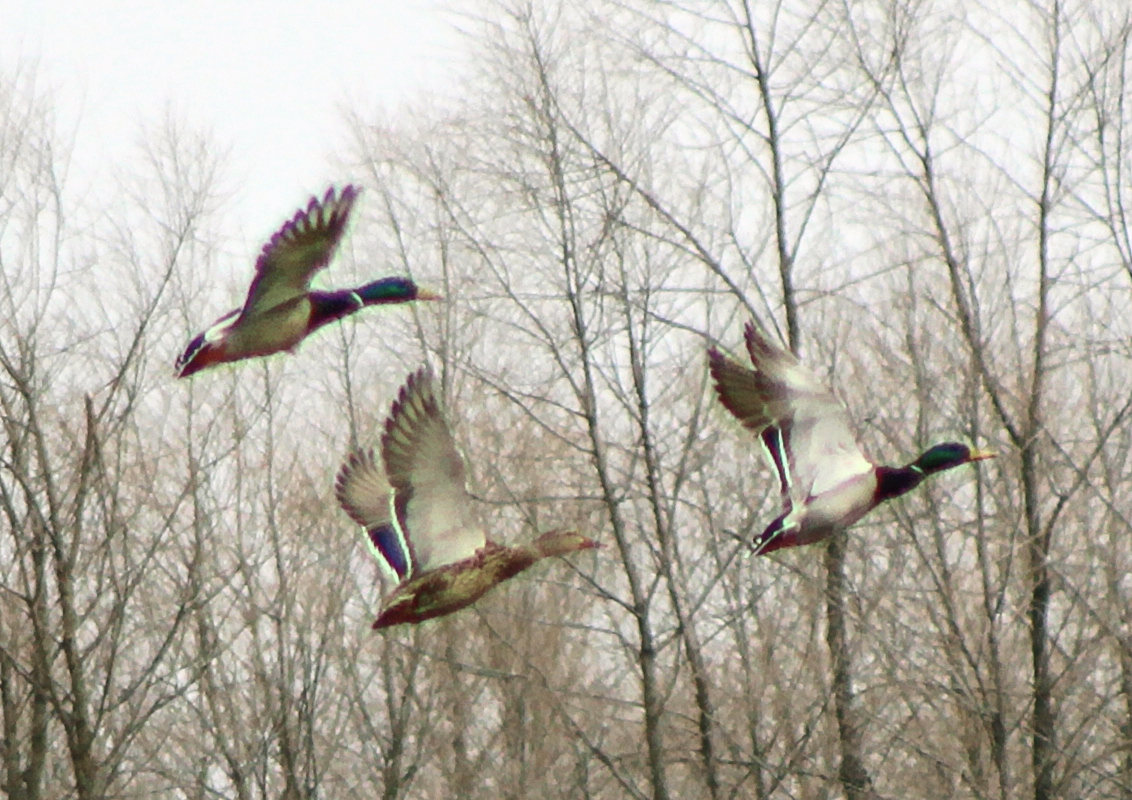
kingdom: Animalia
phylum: Chordata
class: Aves
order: Anseriformes
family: Anatidae
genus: Anas
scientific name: Anas platyrhynchos
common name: Mallard
